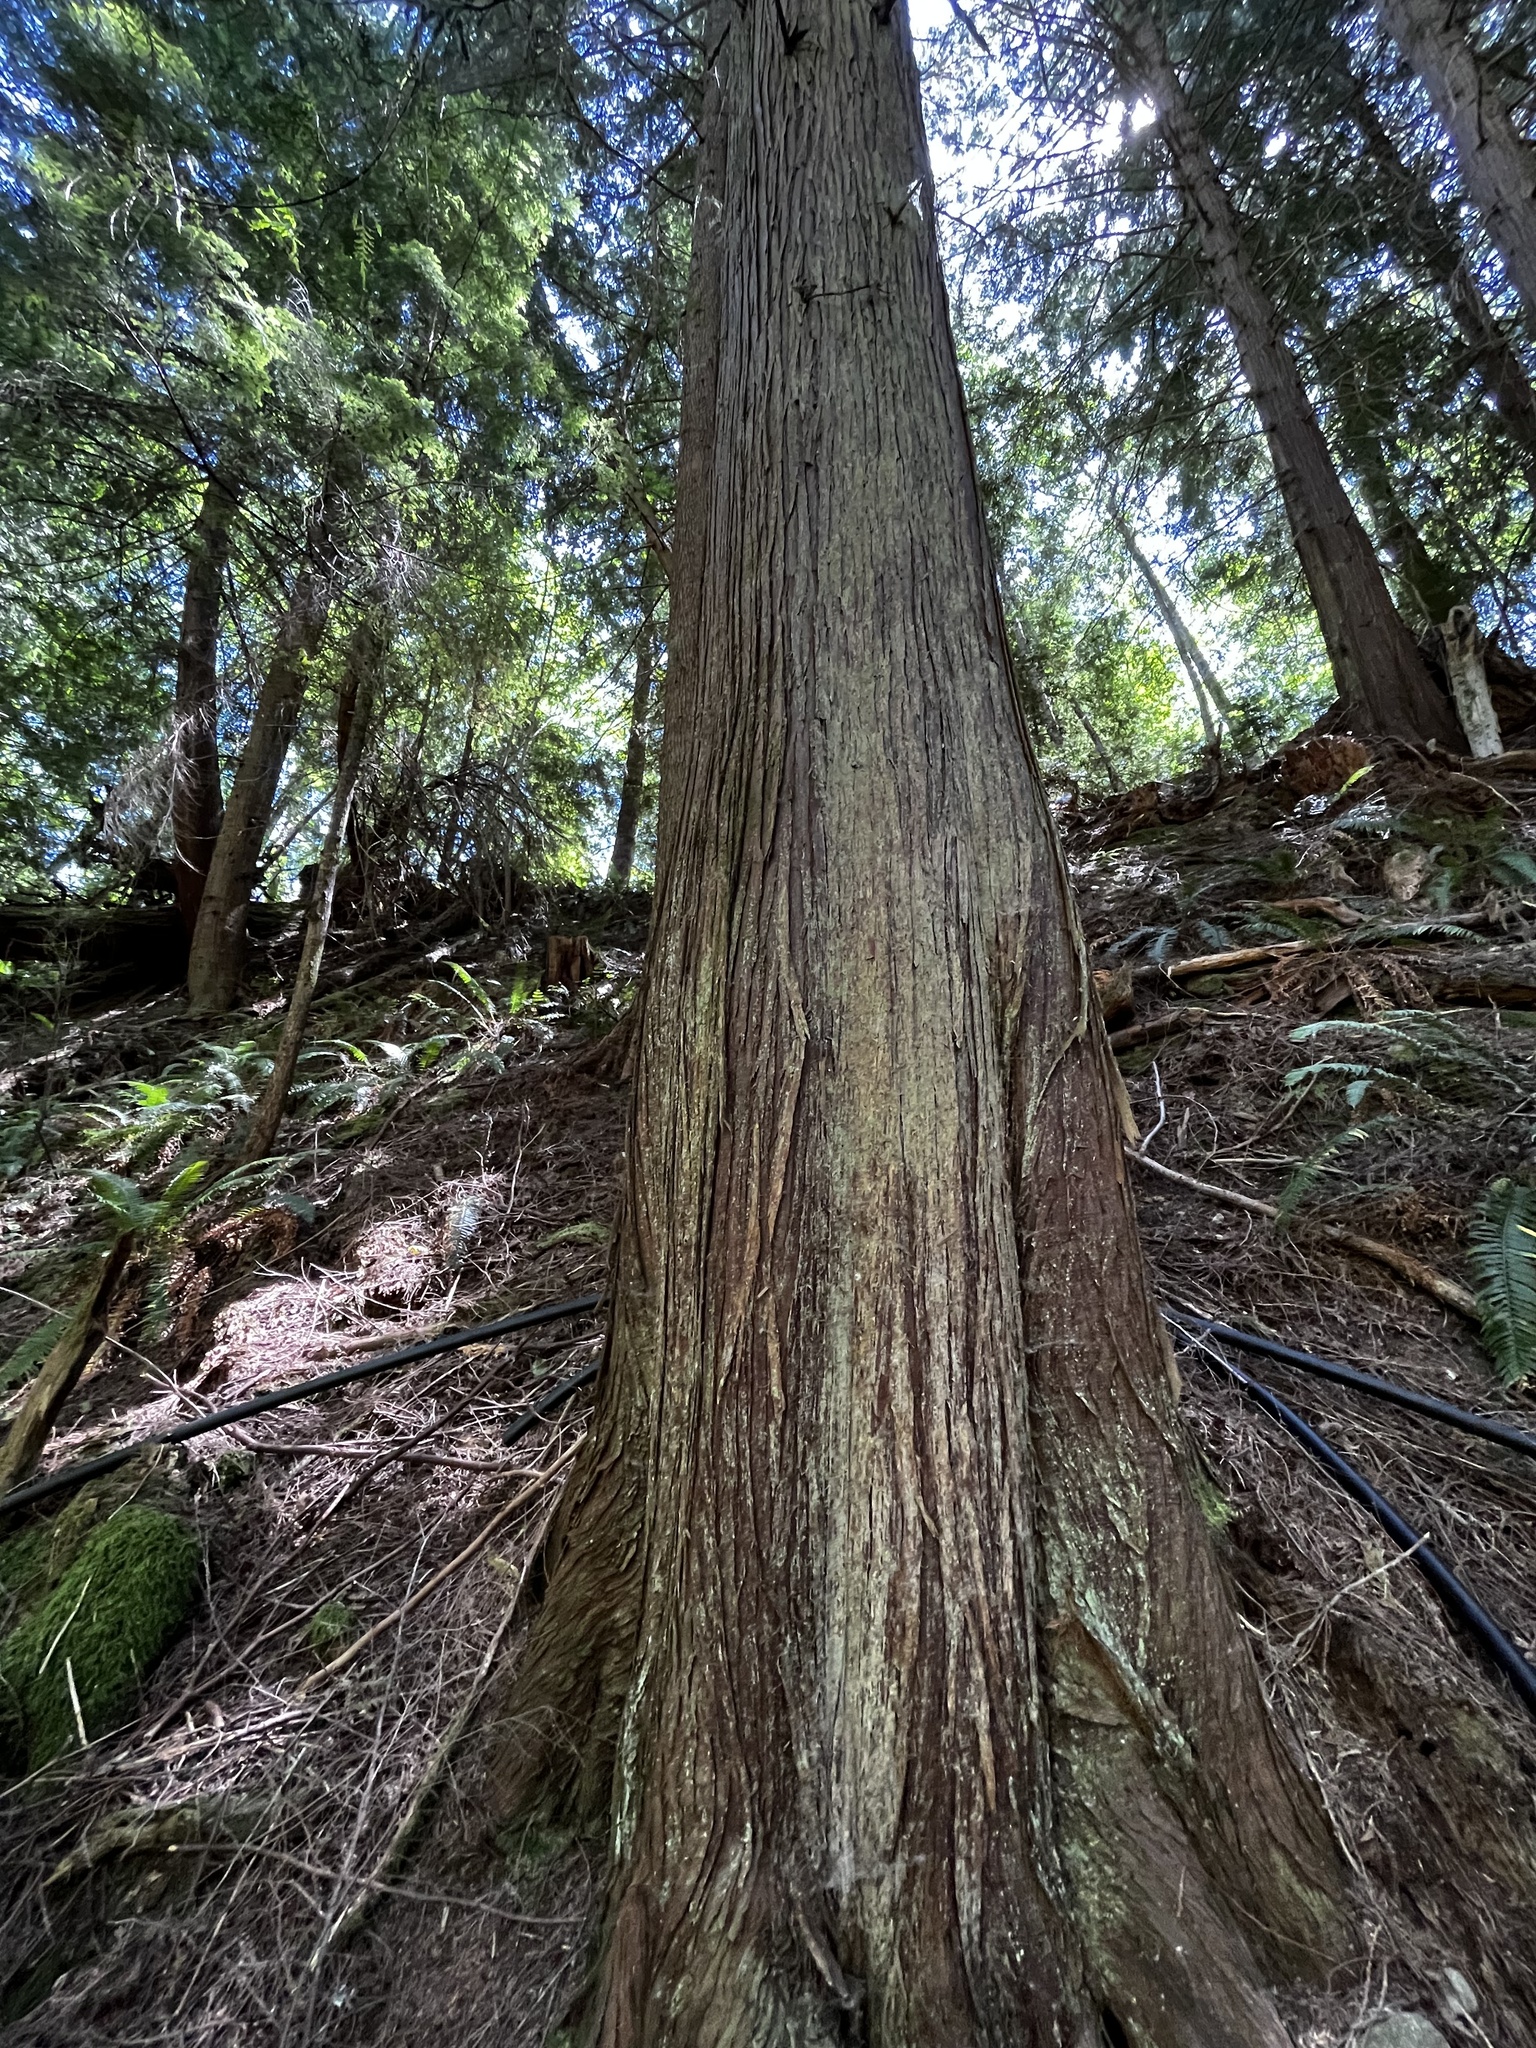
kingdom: Plantae
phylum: Tracheophyta
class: Pinopsida
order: Pinales
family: Cupressaceae
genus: Thuja
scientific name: Thuja plicata
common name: Western red-cedar
